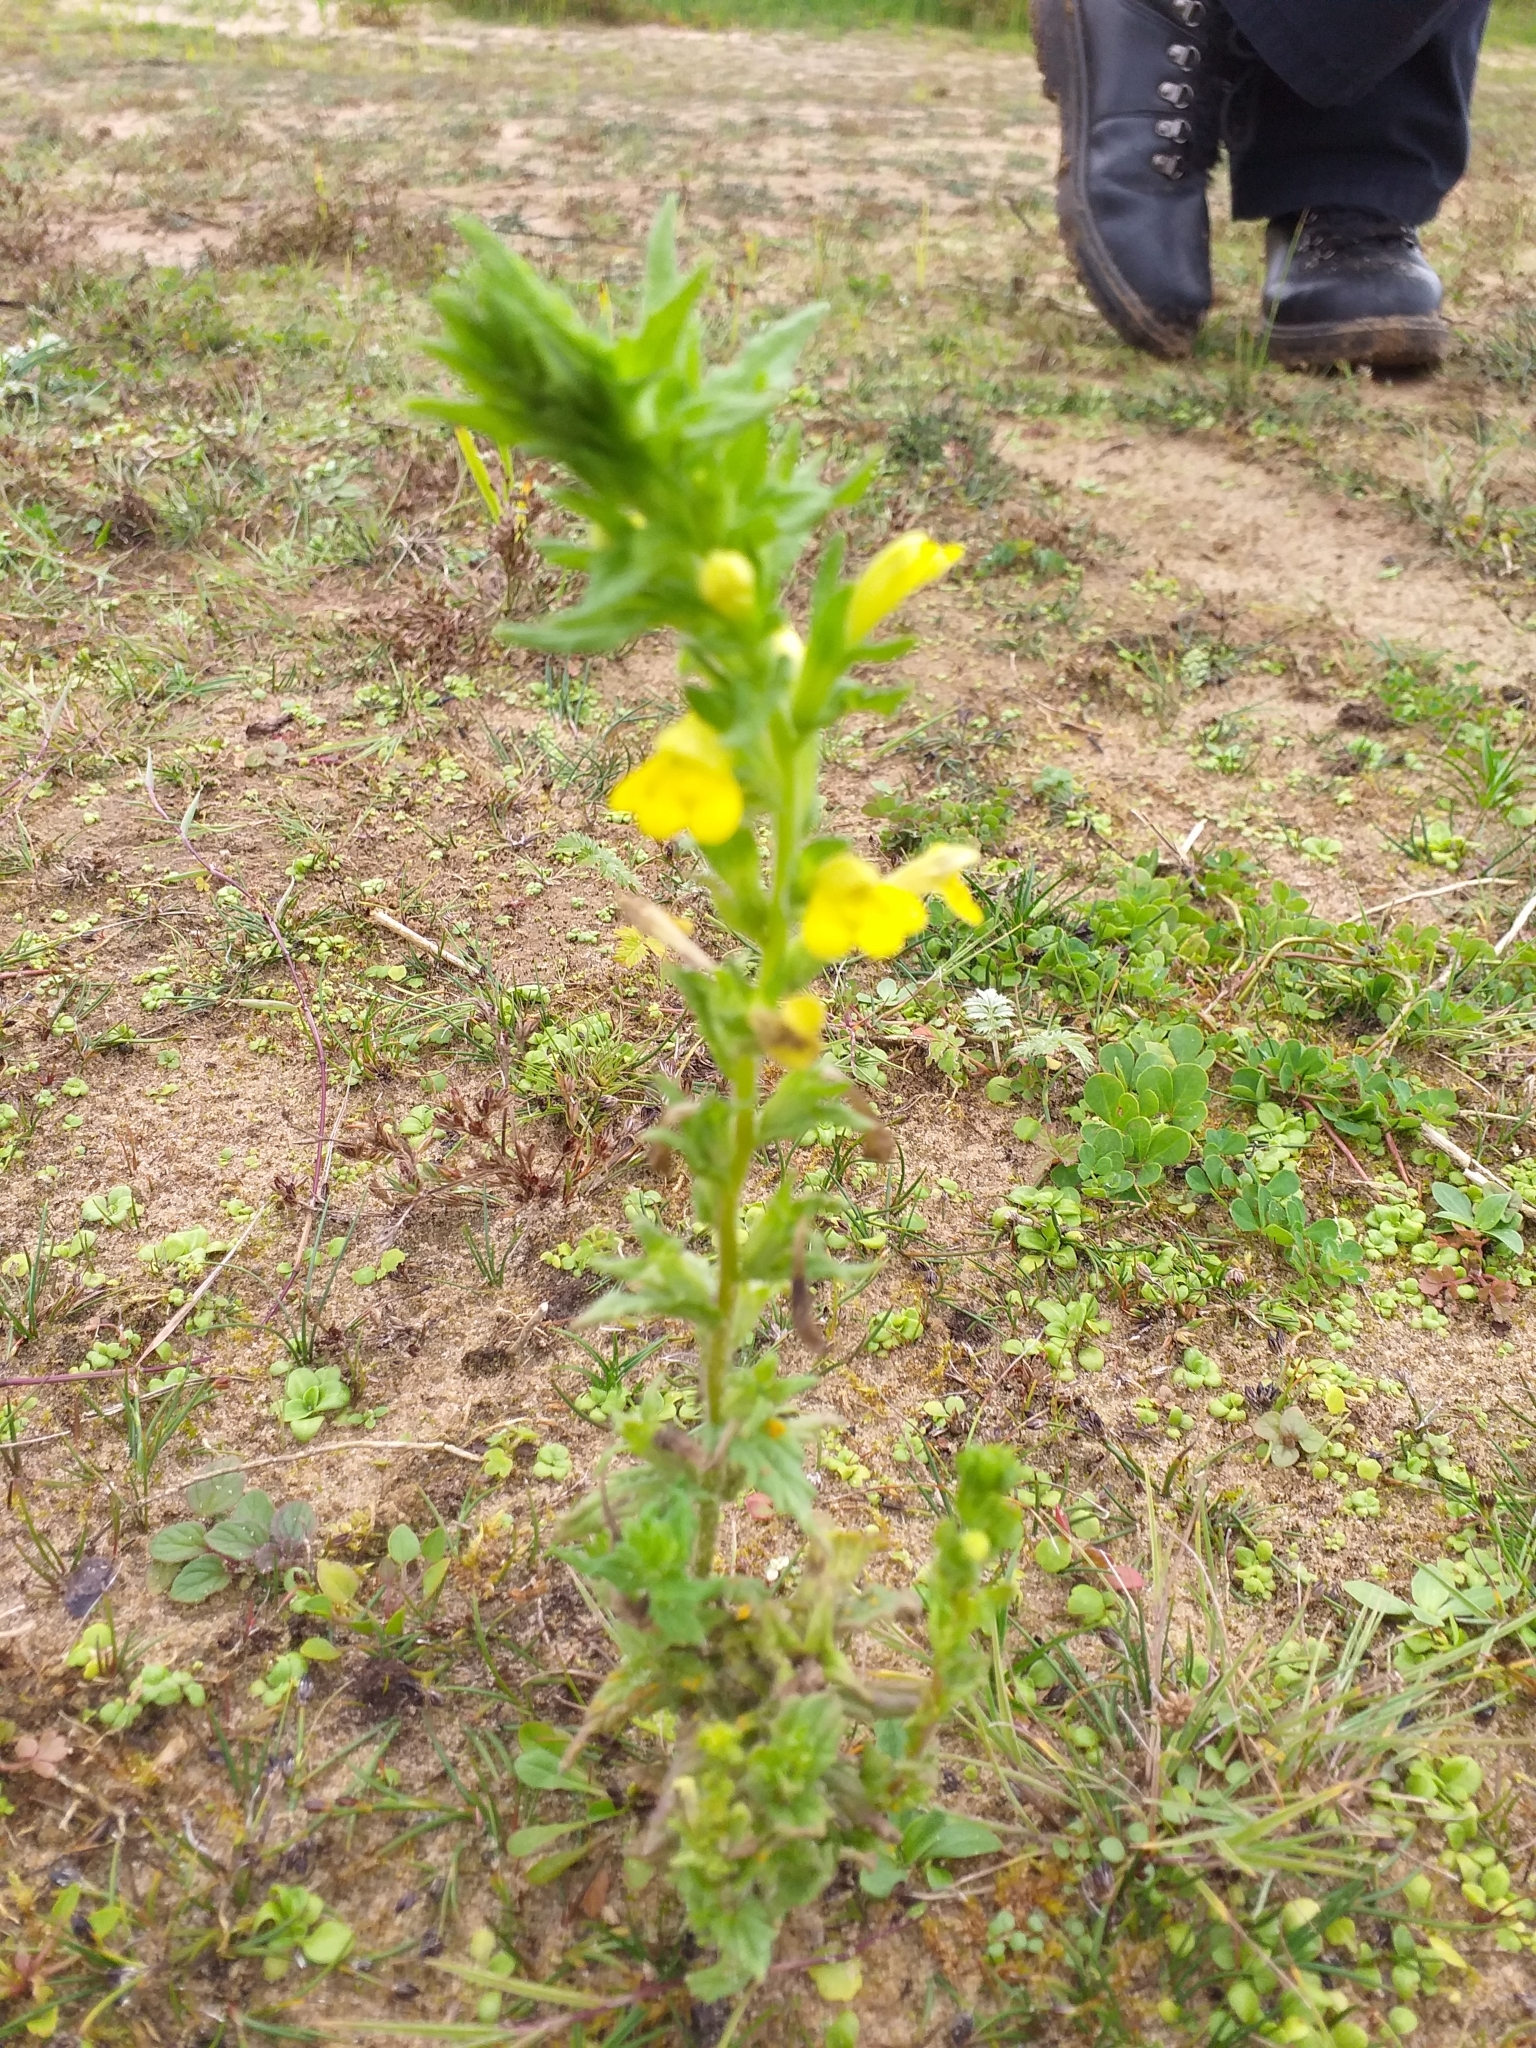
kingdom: Plantae
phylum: Tracheophyta
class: Magnoliopsida
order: Lamiales
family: Orobanchaceae
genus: Bellardia
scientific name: Bellardia viscosa
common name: Sticky parentucellia
